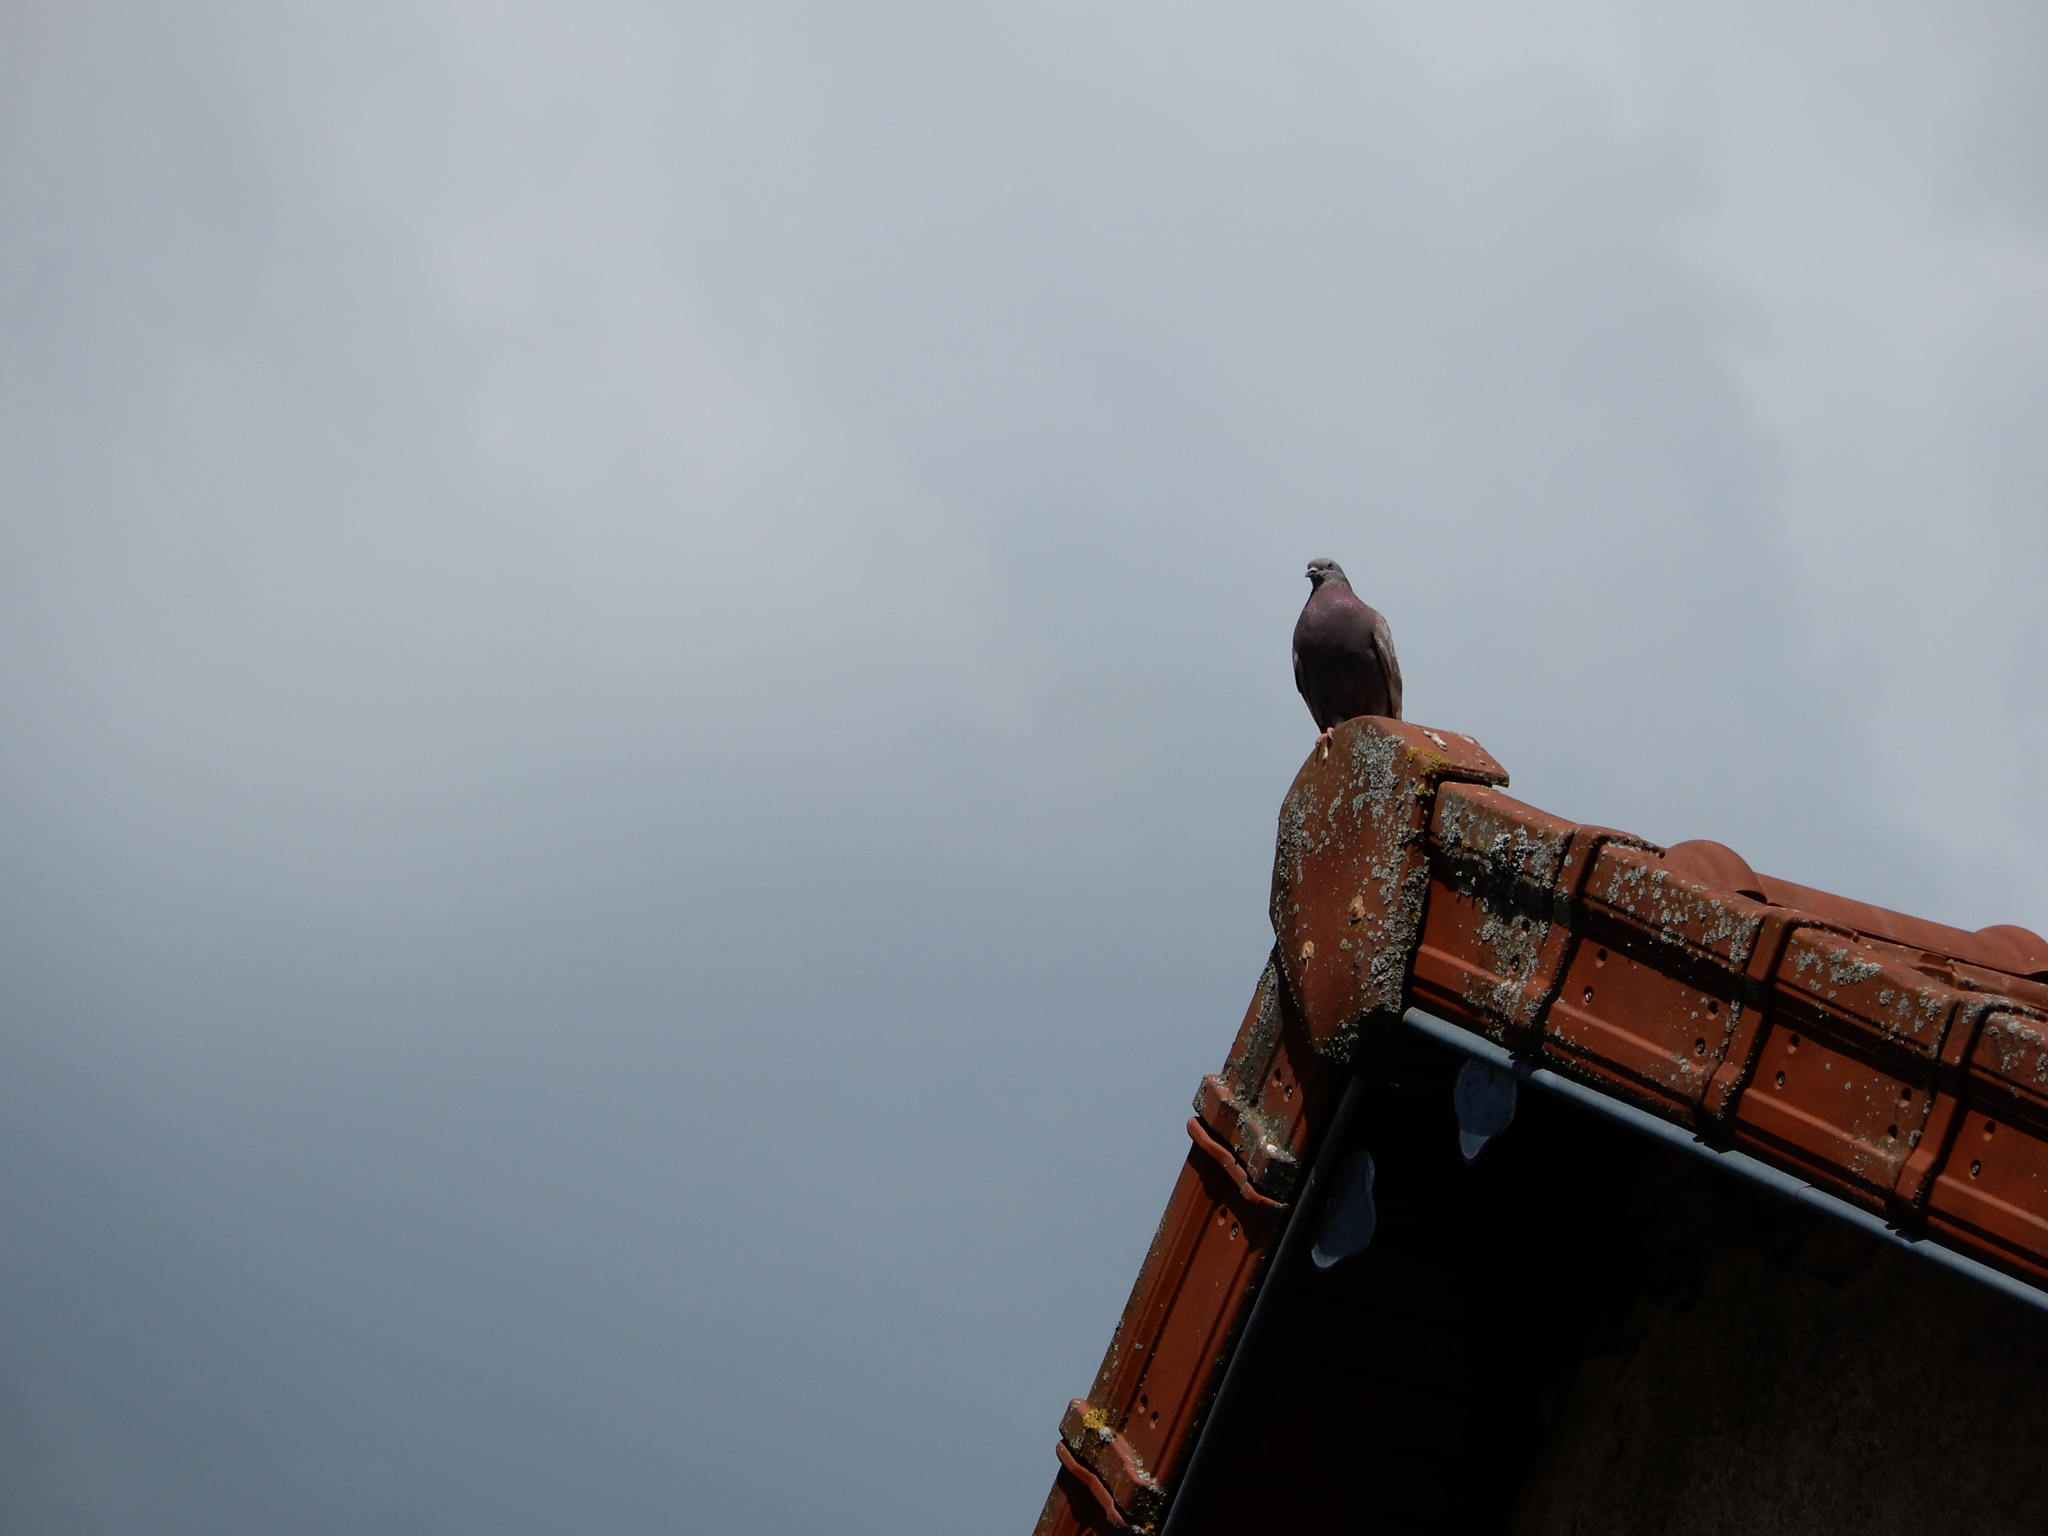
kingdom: Animalia
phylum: Chordata
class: Aves
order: Columbiformes
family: Columbidae
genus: Columba
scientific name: Columba livia
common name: Rock pigeon
